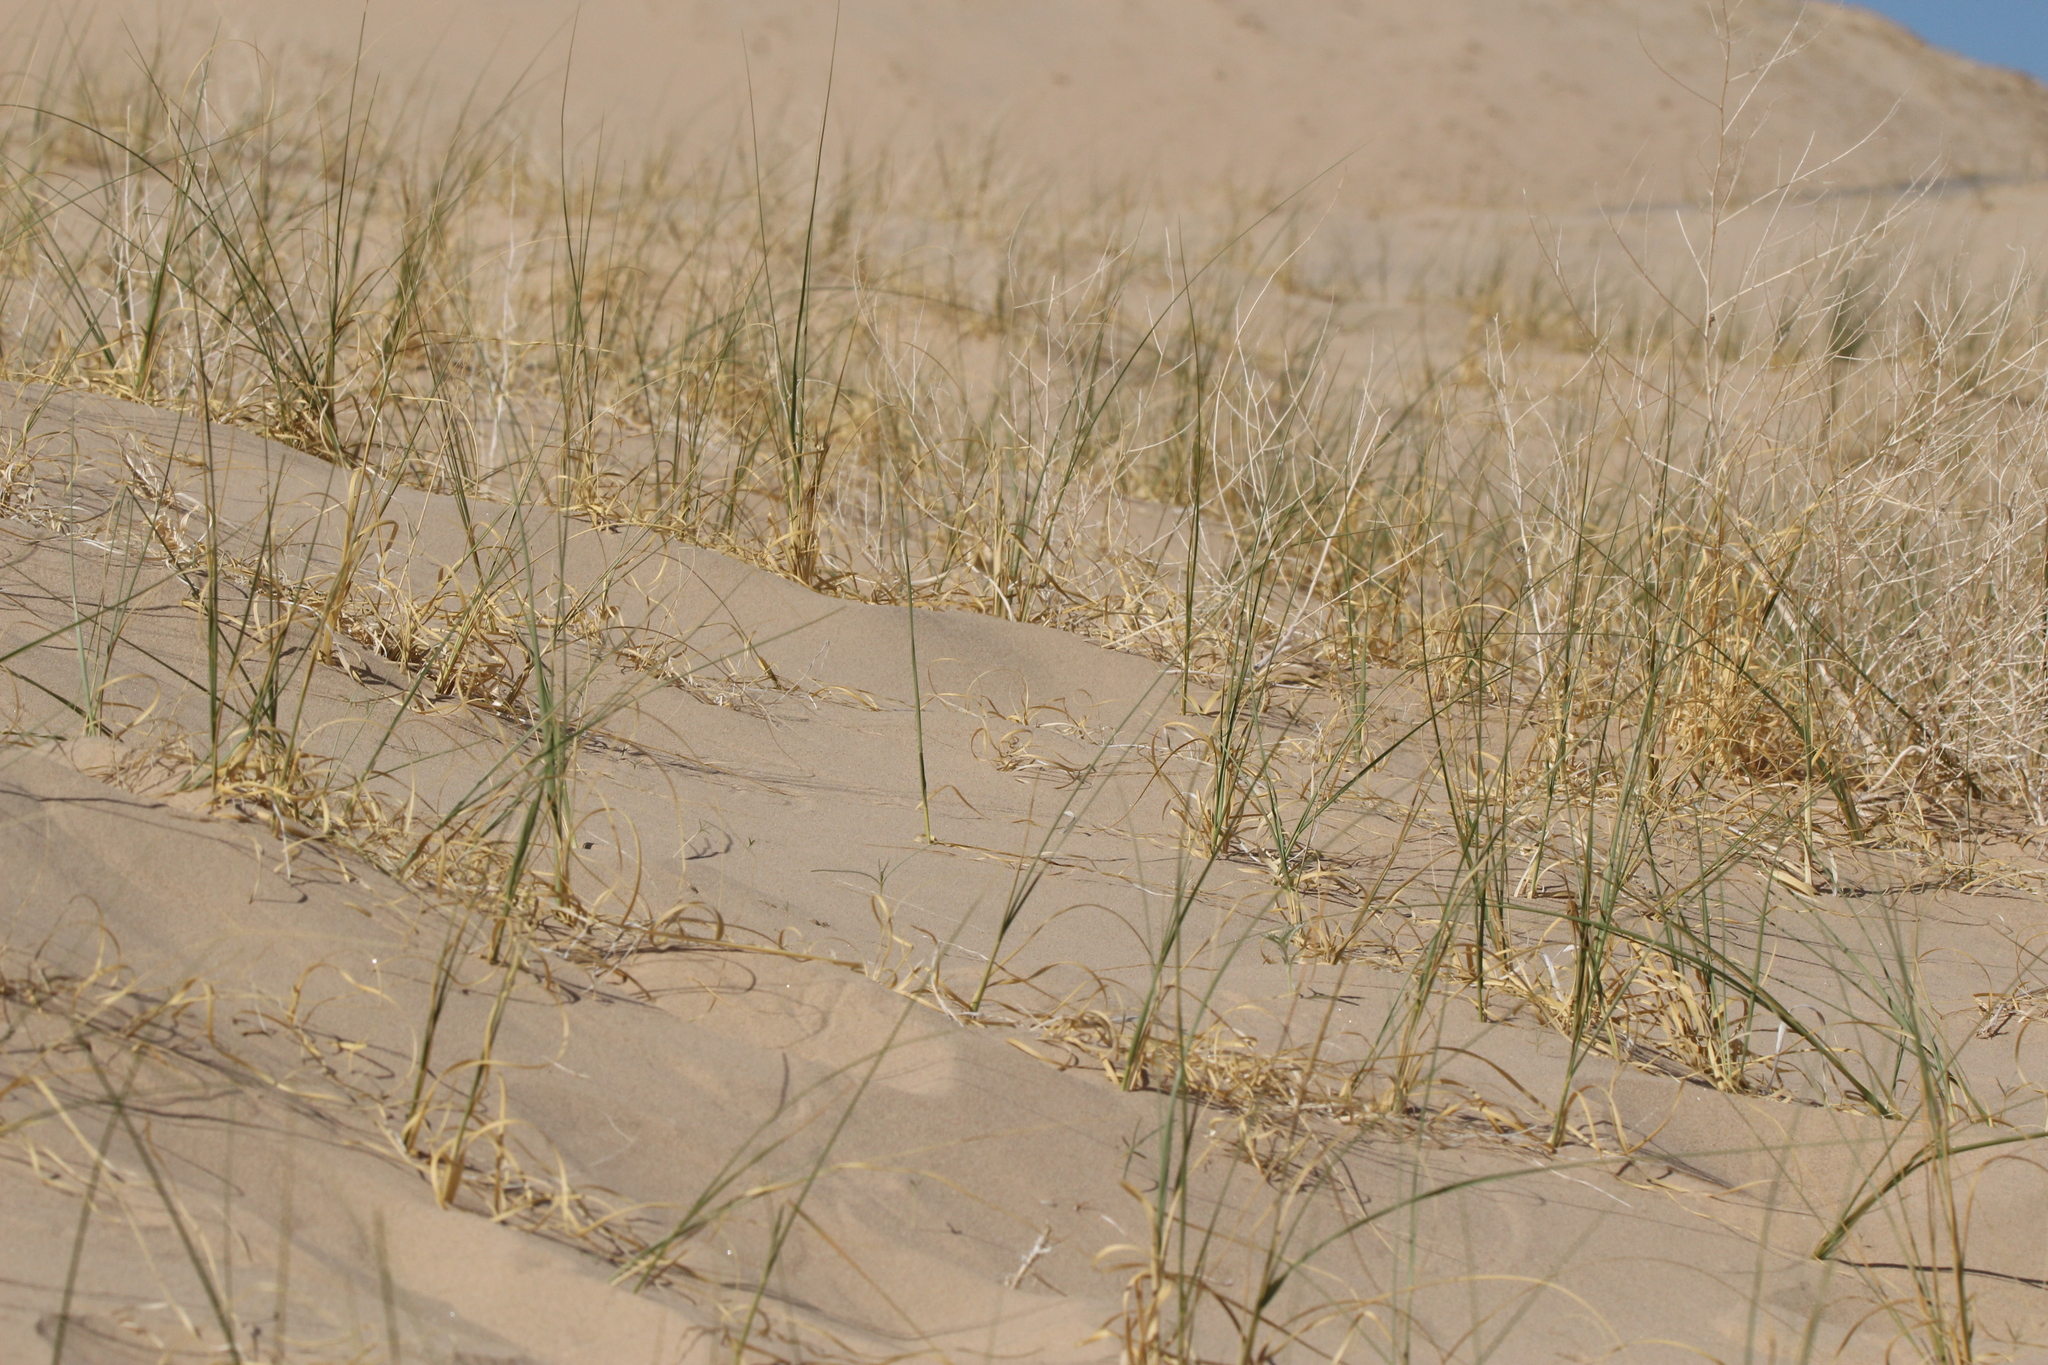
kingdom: Plantae
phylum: Tracheophyta
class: Liliopsida
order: Poales
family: Poaceae
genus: Eriocoma
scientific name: Eriocoma hymenoides
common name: Indian mountain ricegrass
